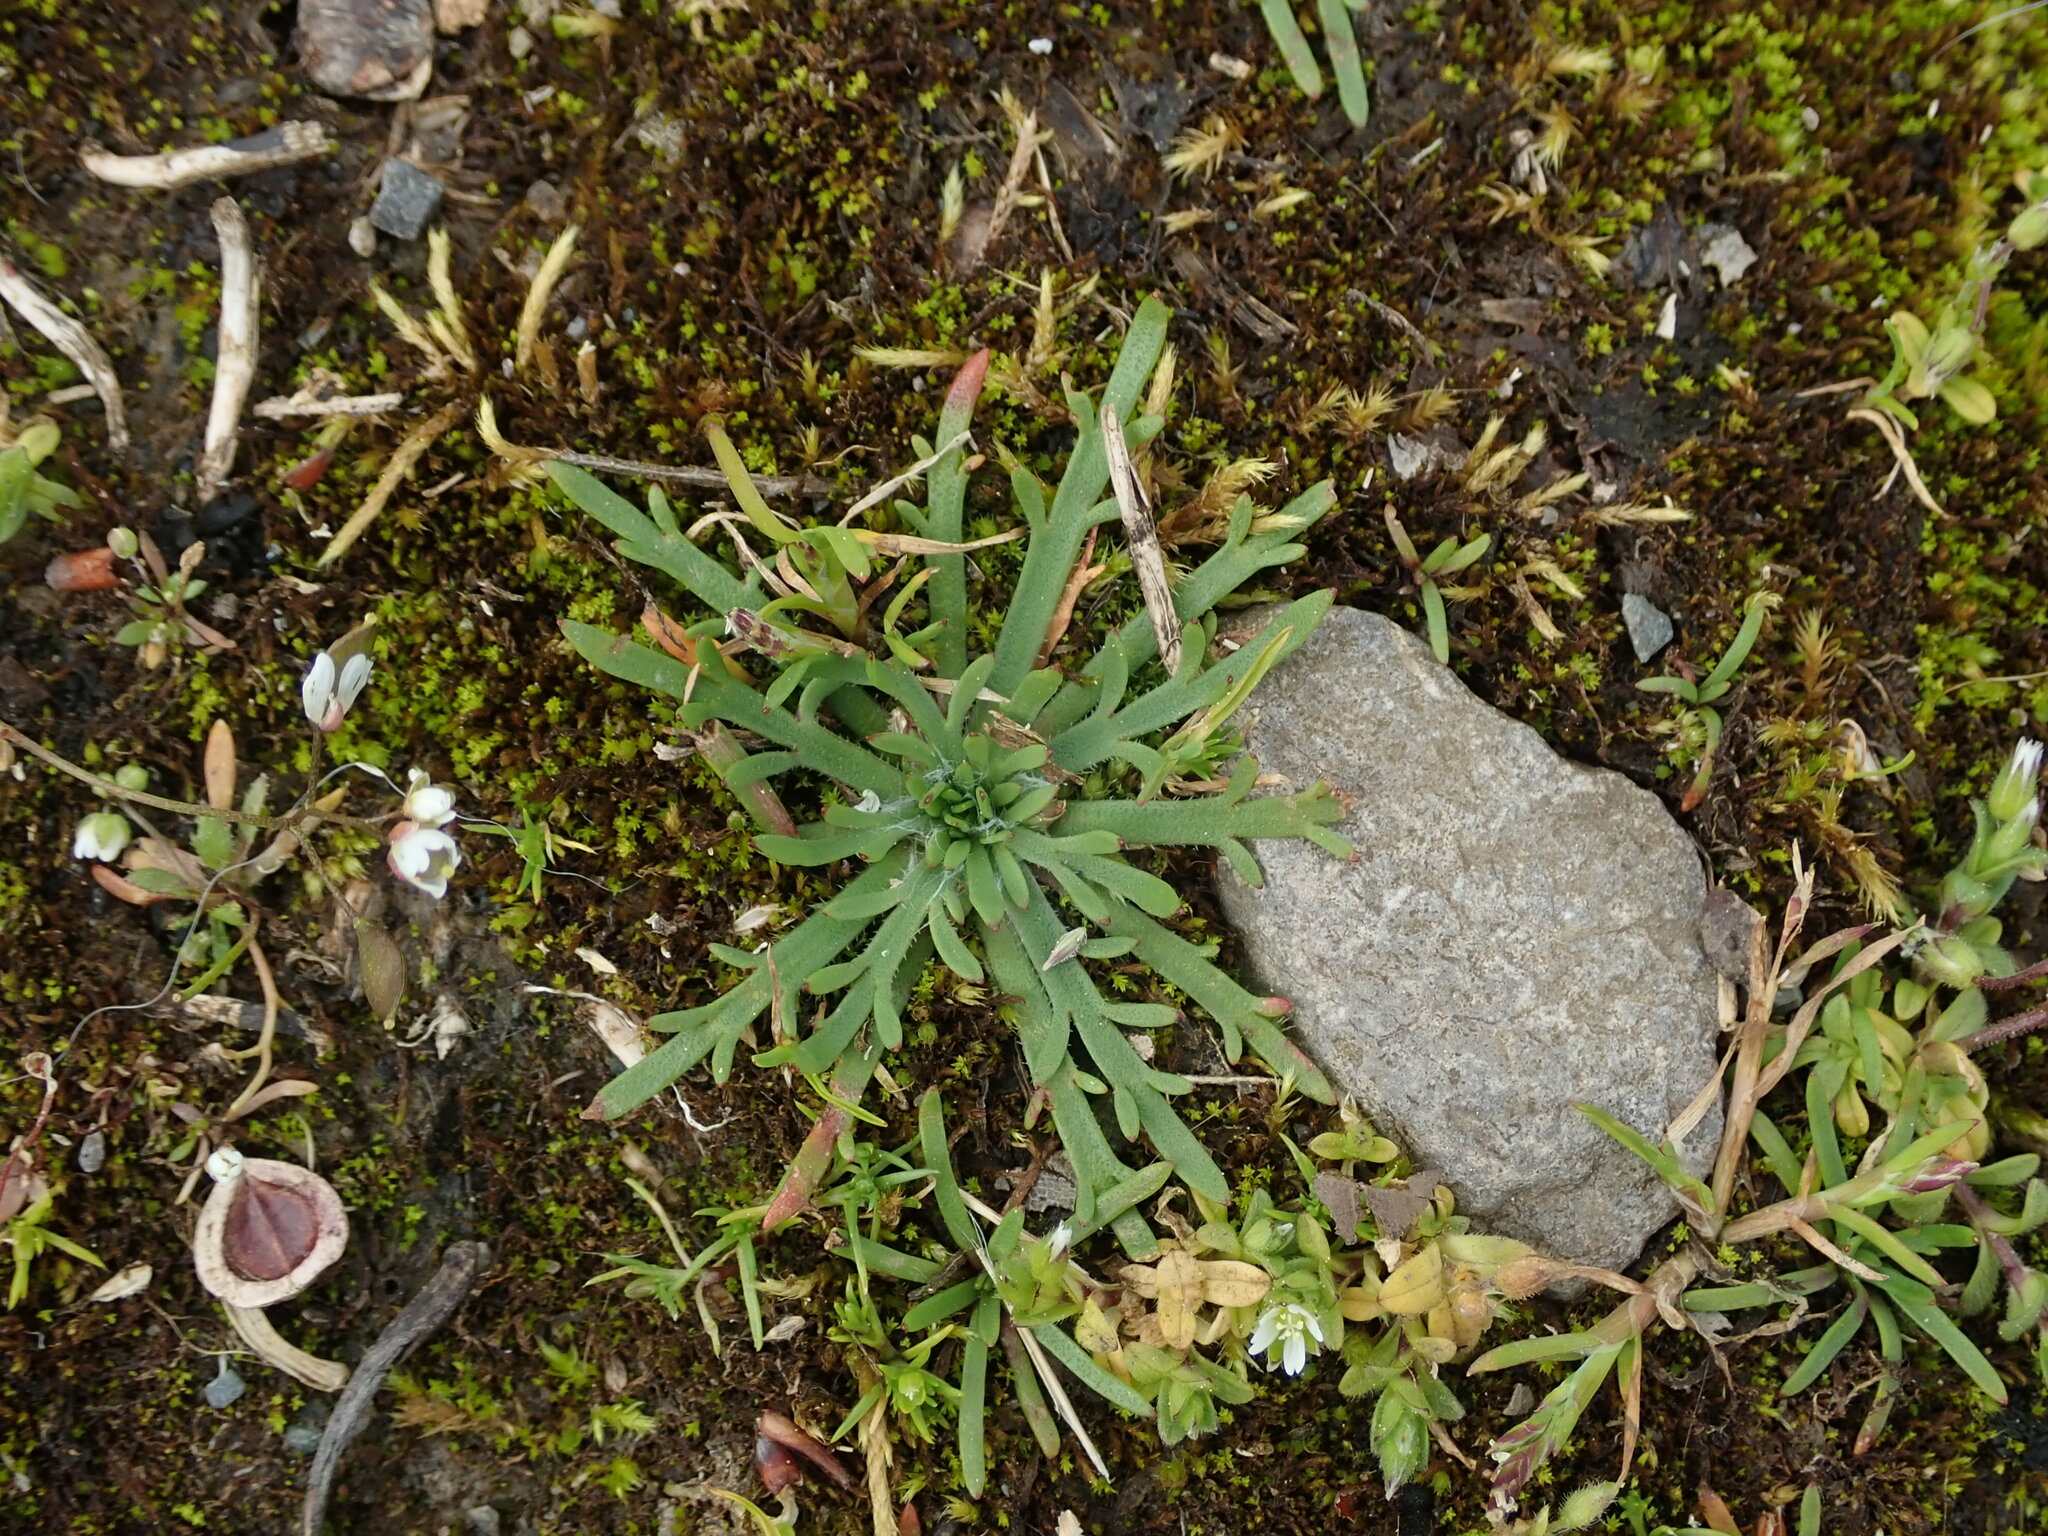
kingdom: Plantae
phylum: Tracheophyta
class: Magnoliopsida
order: Lamiales
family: Plantaginaceae
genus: Plantago
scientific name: Plantago coronopus
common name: Buck's-horn plantain
